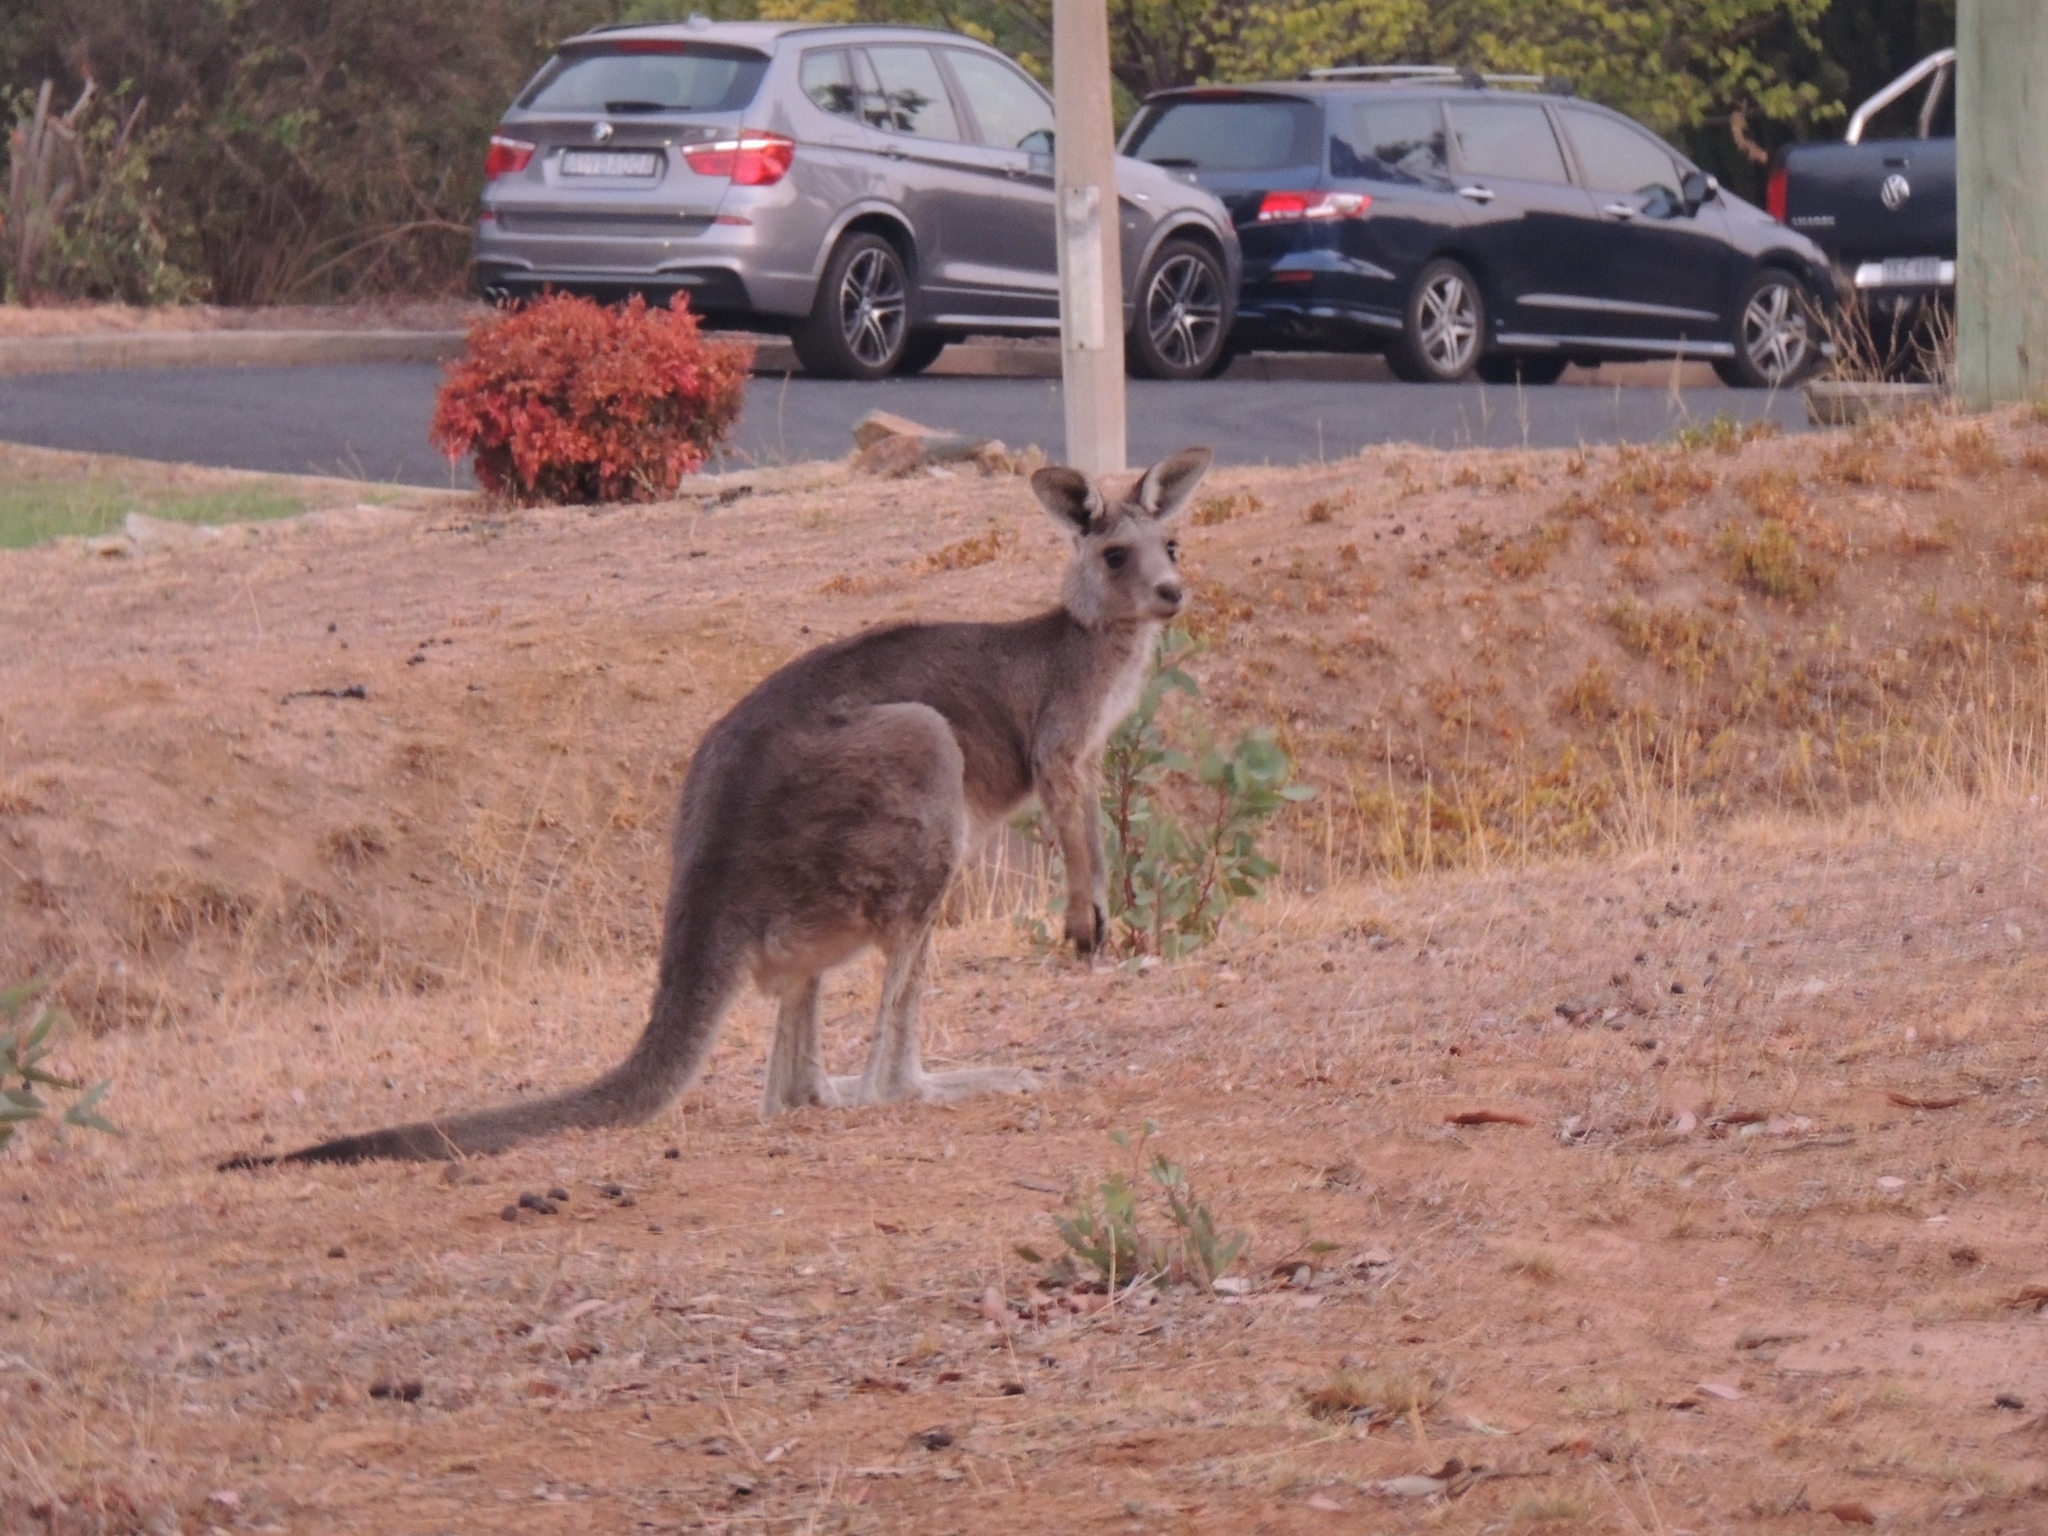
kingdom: Animalia
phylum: Chordata
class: Mammalia
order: Diprotodontia
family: Macropodidae
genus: Macropus
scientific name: Macropus giganteus
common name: Eastern grey kangaroo
